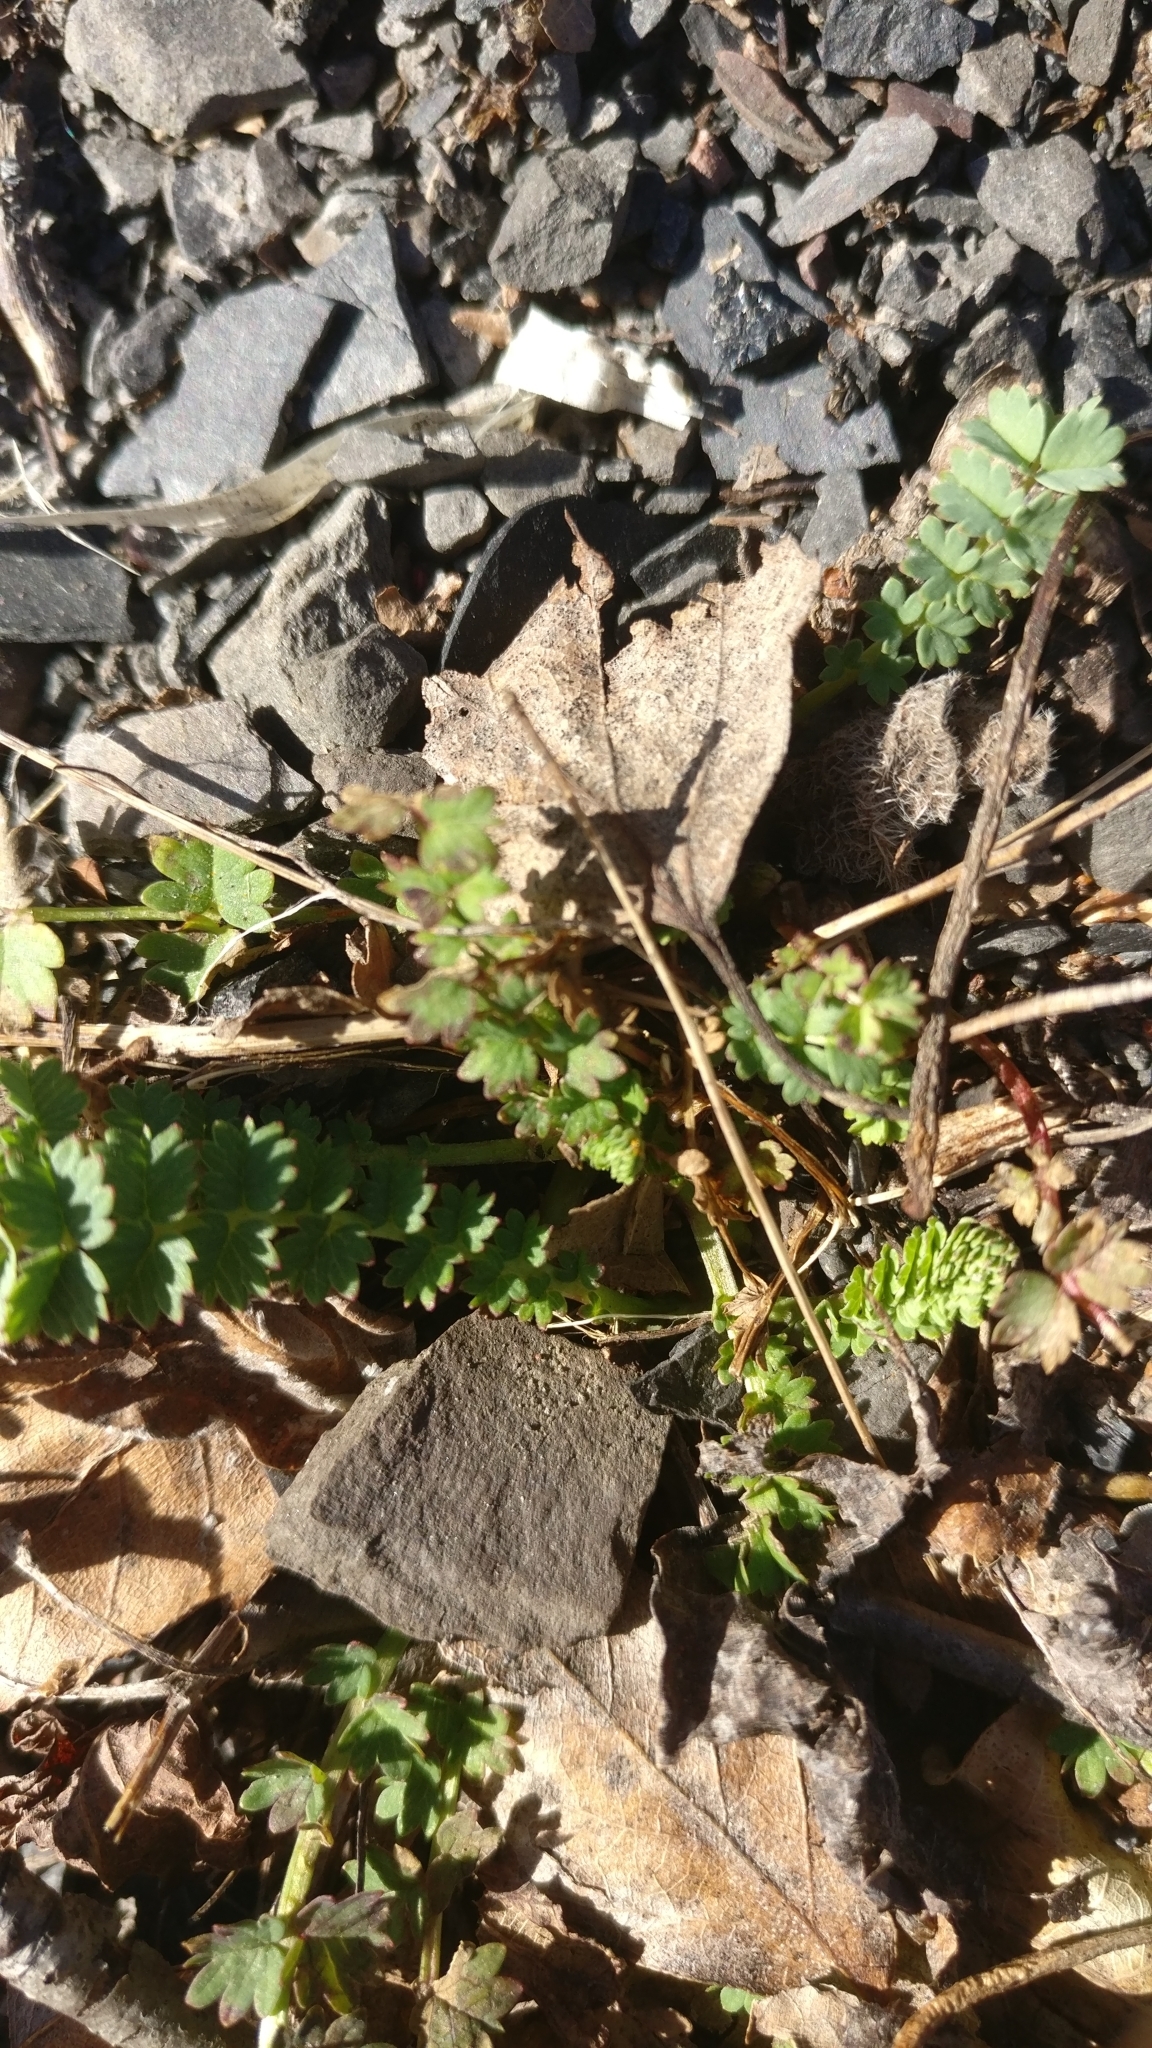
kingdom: Plantae
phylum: Tracheophyta
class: Magnoliopsida
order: Rosales
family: Rosaceae
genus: Poterium
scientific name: Poterium sanguisorba
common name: Salad burnet
